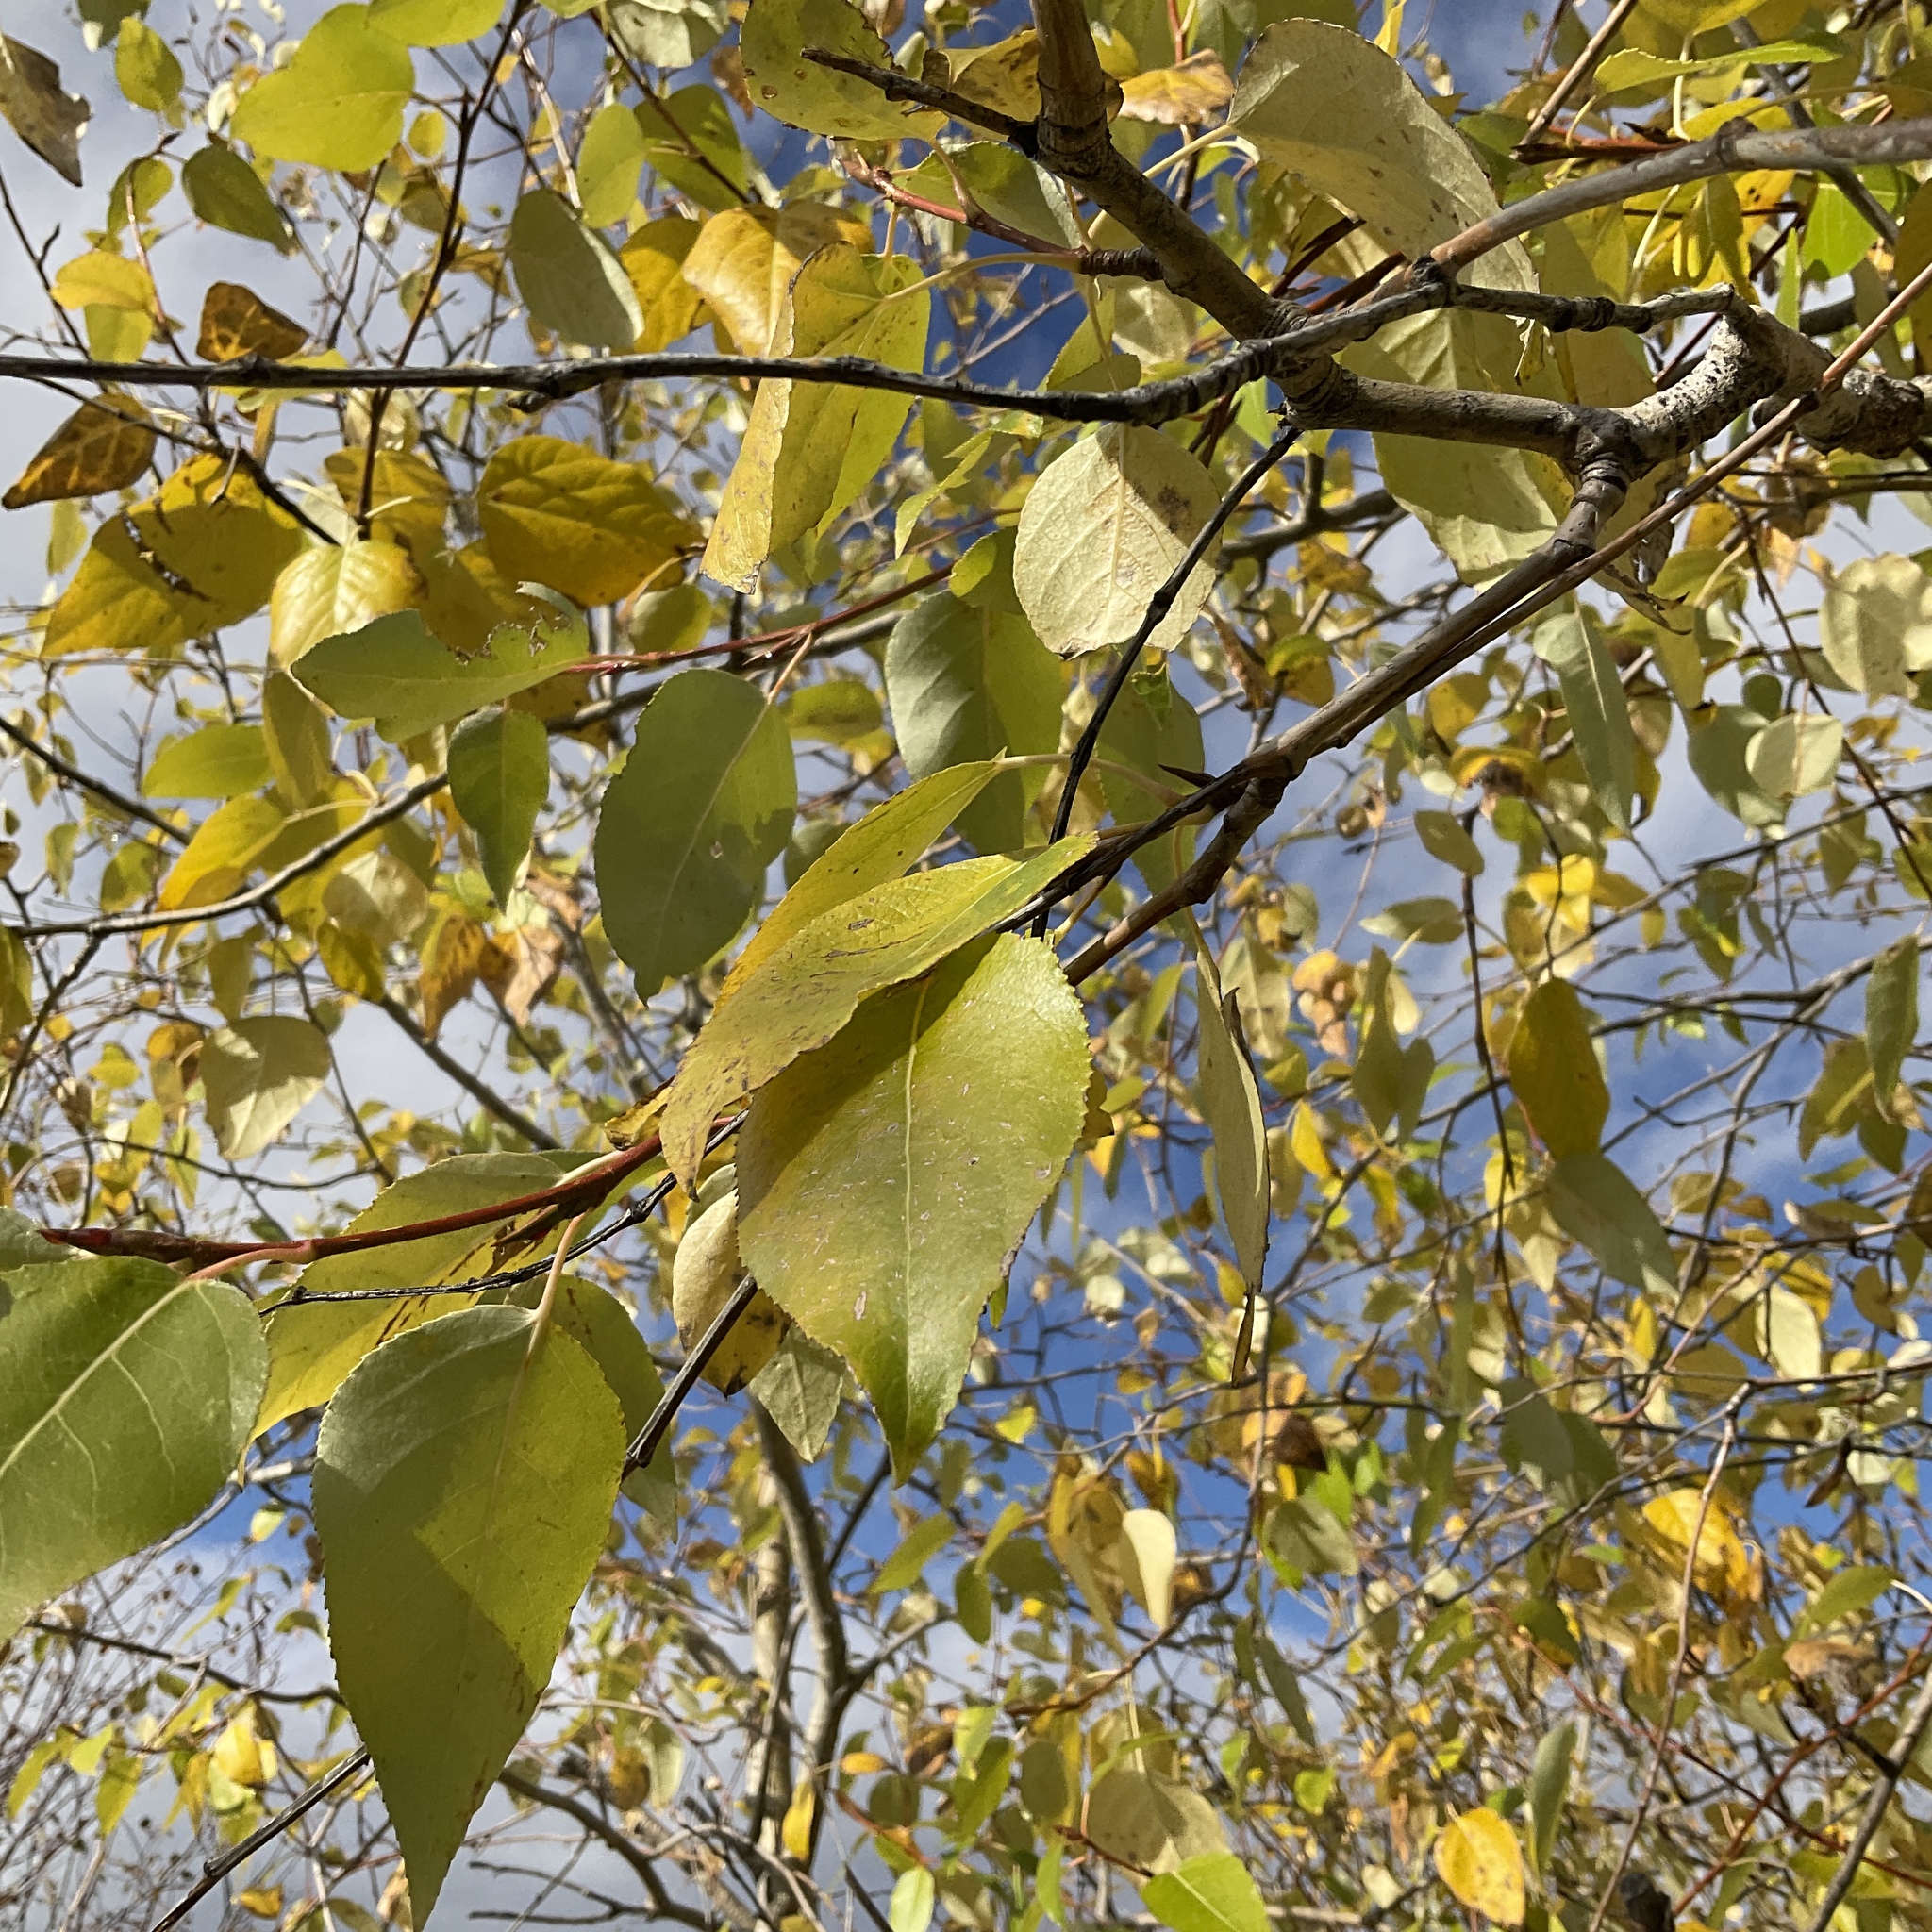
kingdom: Plantae
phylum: Tracheophyta
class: Magnoliopsida
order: Malpighiales
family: Salicaceae
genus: Populus
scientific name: Populus trichocarpa
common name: Black cottonwood
